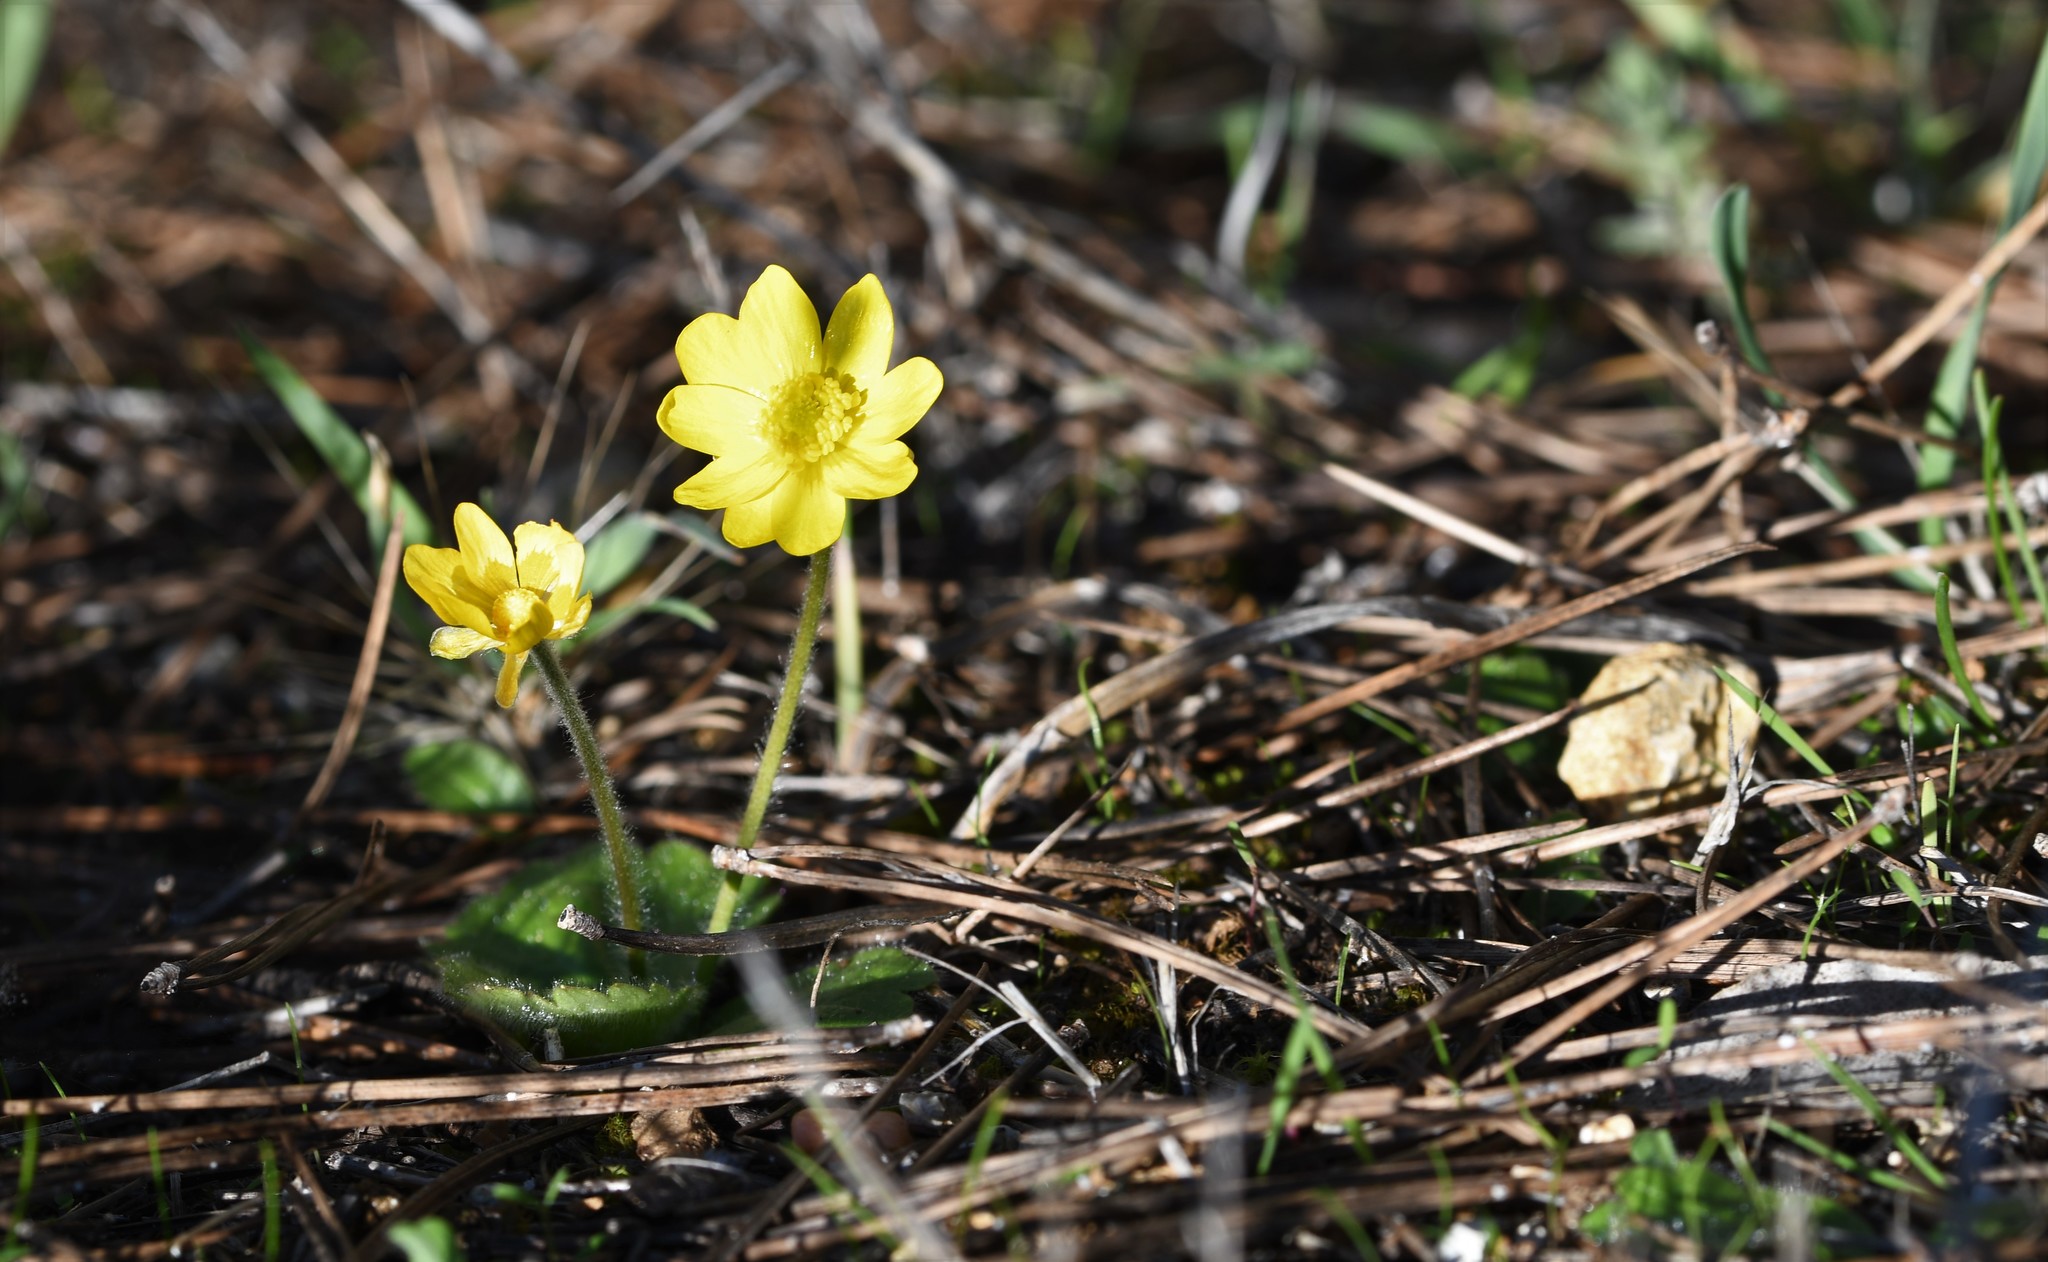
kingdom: Plantae
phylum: Tracheophyta
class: Magnoliopsida
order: Ranunculales
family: Ranunculaceae
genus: Ranunculus
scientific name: Ranunculus bullatus
